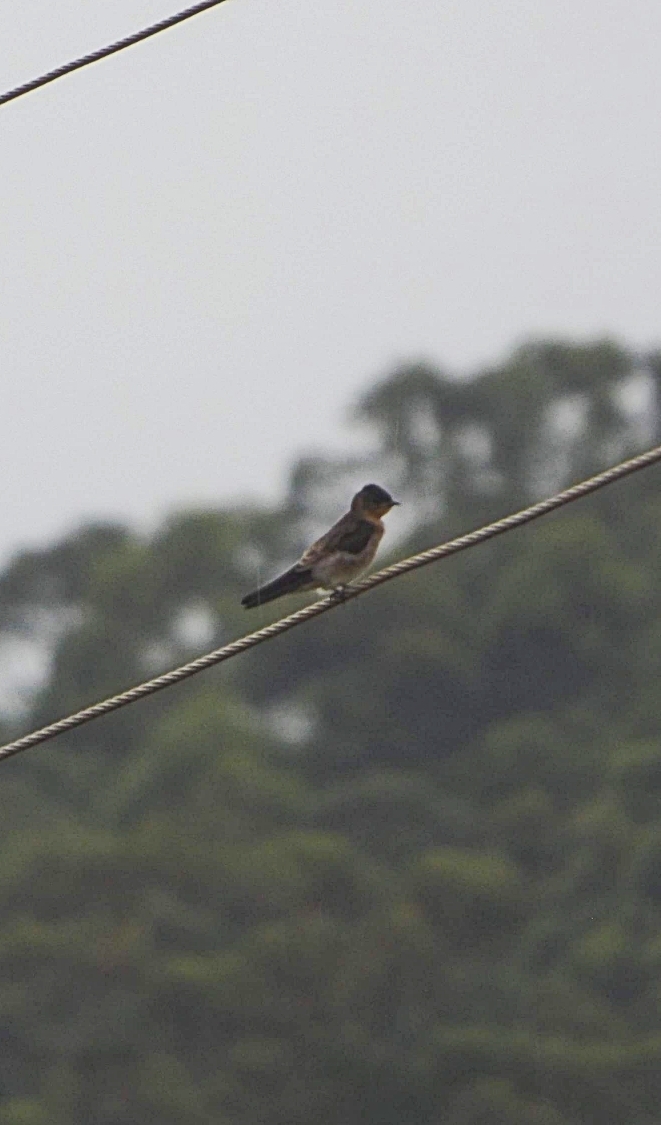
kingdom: Animalia
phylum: Chordata
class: Aves
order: Passeriformes
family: Hirundinidae
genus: Stelgidopteryx
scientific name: Stelgidopteryx ruficollis
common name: Southern rough-winged swallow
